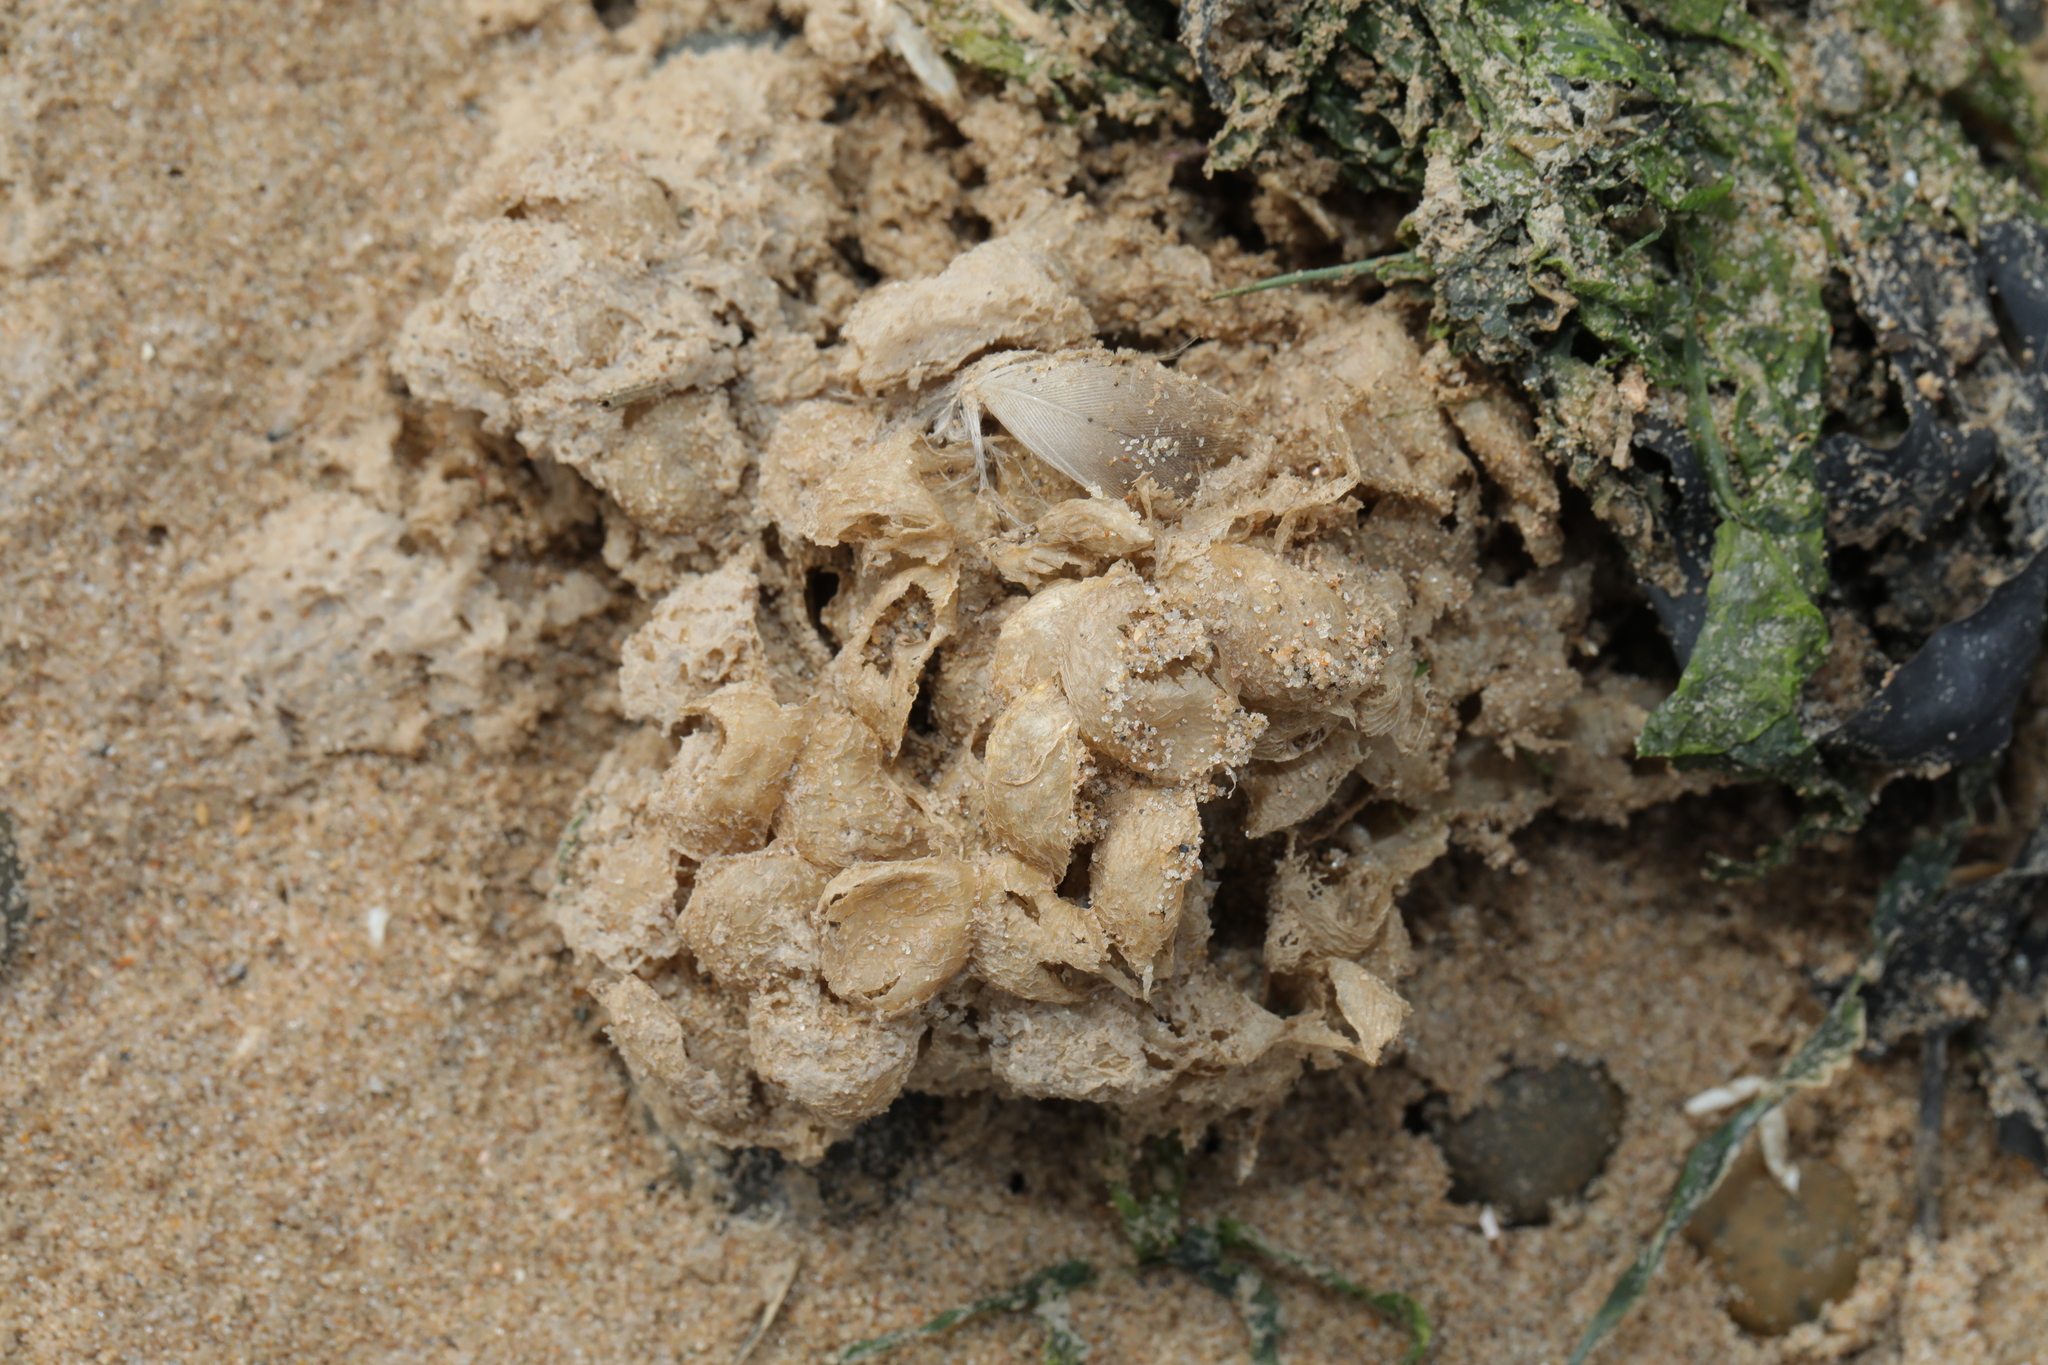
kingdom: Animalia
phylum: Mollusca
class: Gastropoda
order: Neogastropoda
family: Buccinidae
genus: Buccinum
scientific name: Buccinum undatum
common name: Common whelk
